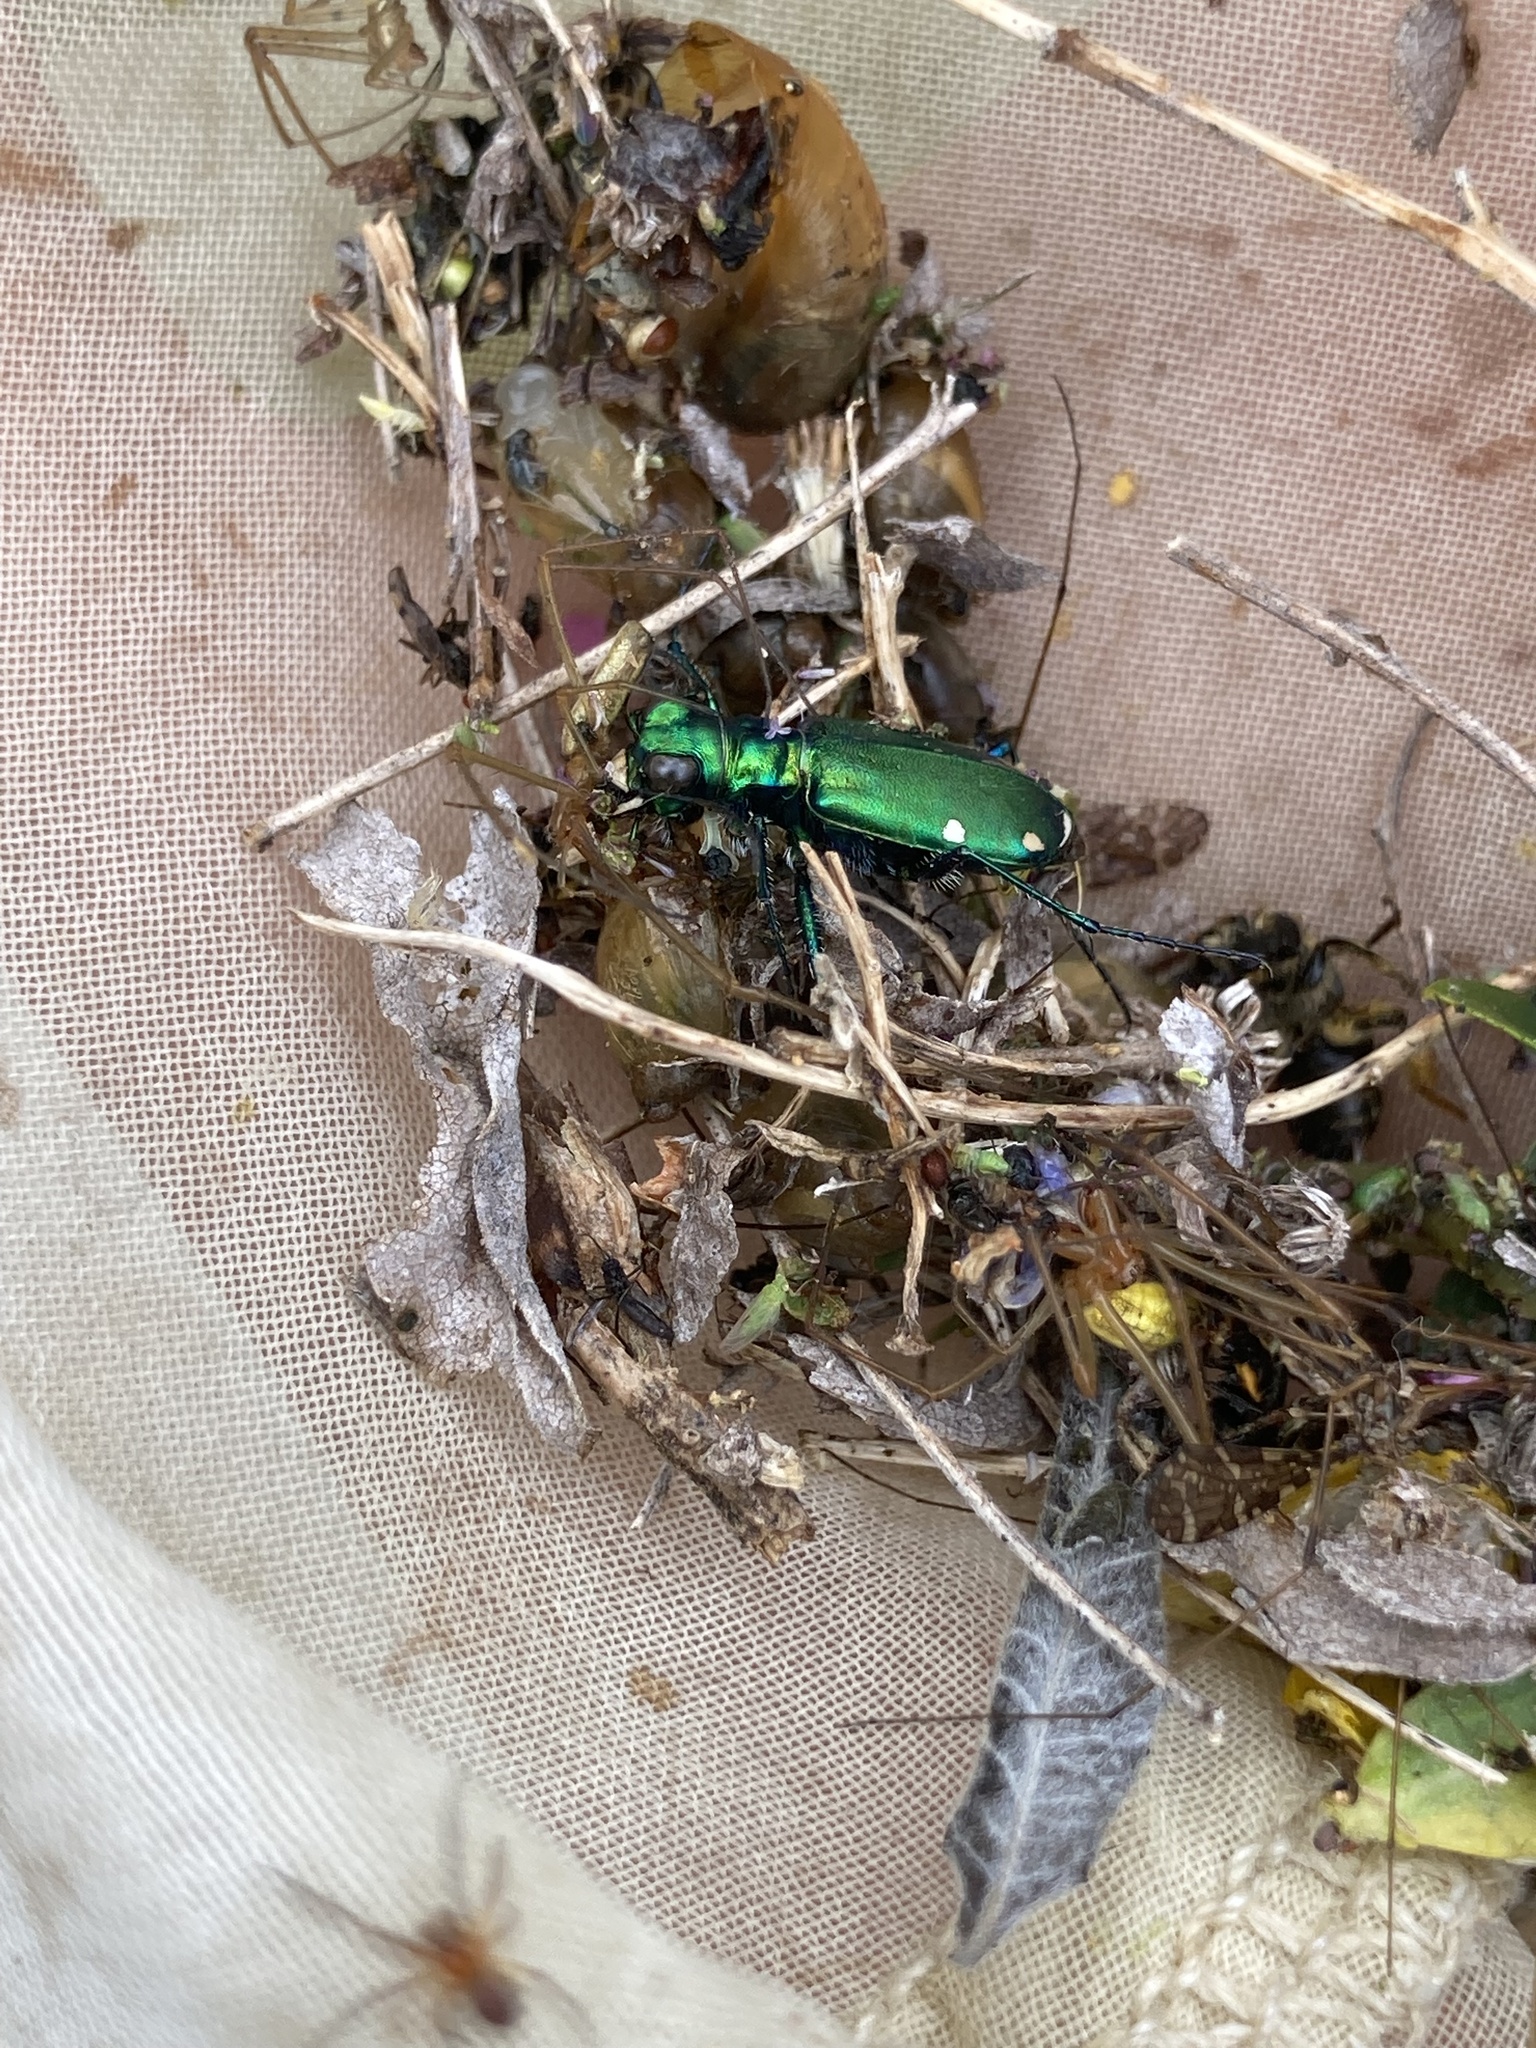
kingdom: Animalia
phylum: Arthropoda
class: Insecta
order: Coleoptera
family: Carabidae
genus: Cicindela
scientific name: Cicindela sexguttata
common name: Six-spotted tiger beetle
